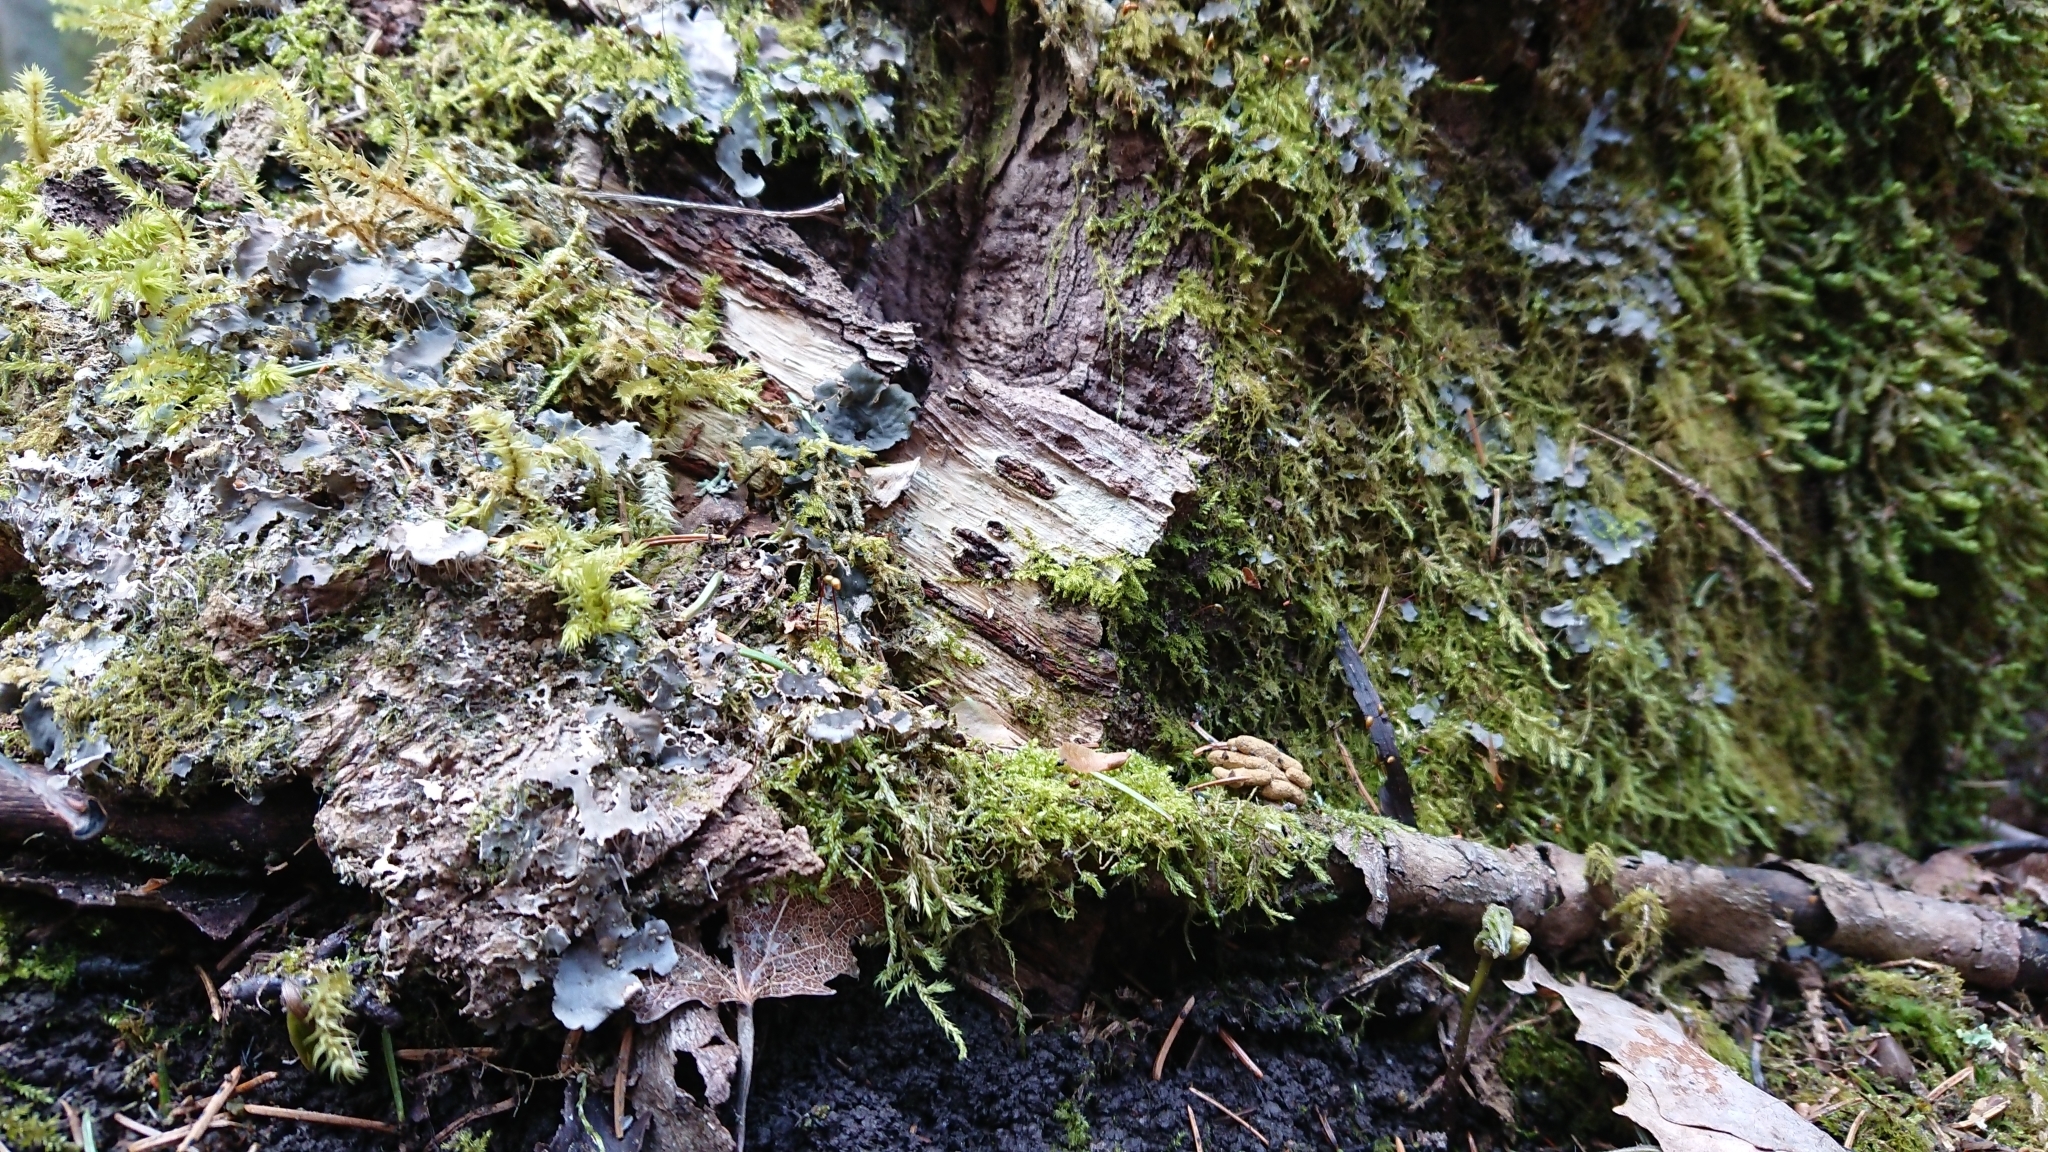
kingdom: Animalia
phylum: Chordata
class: Mammalia
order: Rodentia
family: Sciuridae
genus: Pteromys
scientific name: Pteromys volans
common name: Siberian flying squirrel
